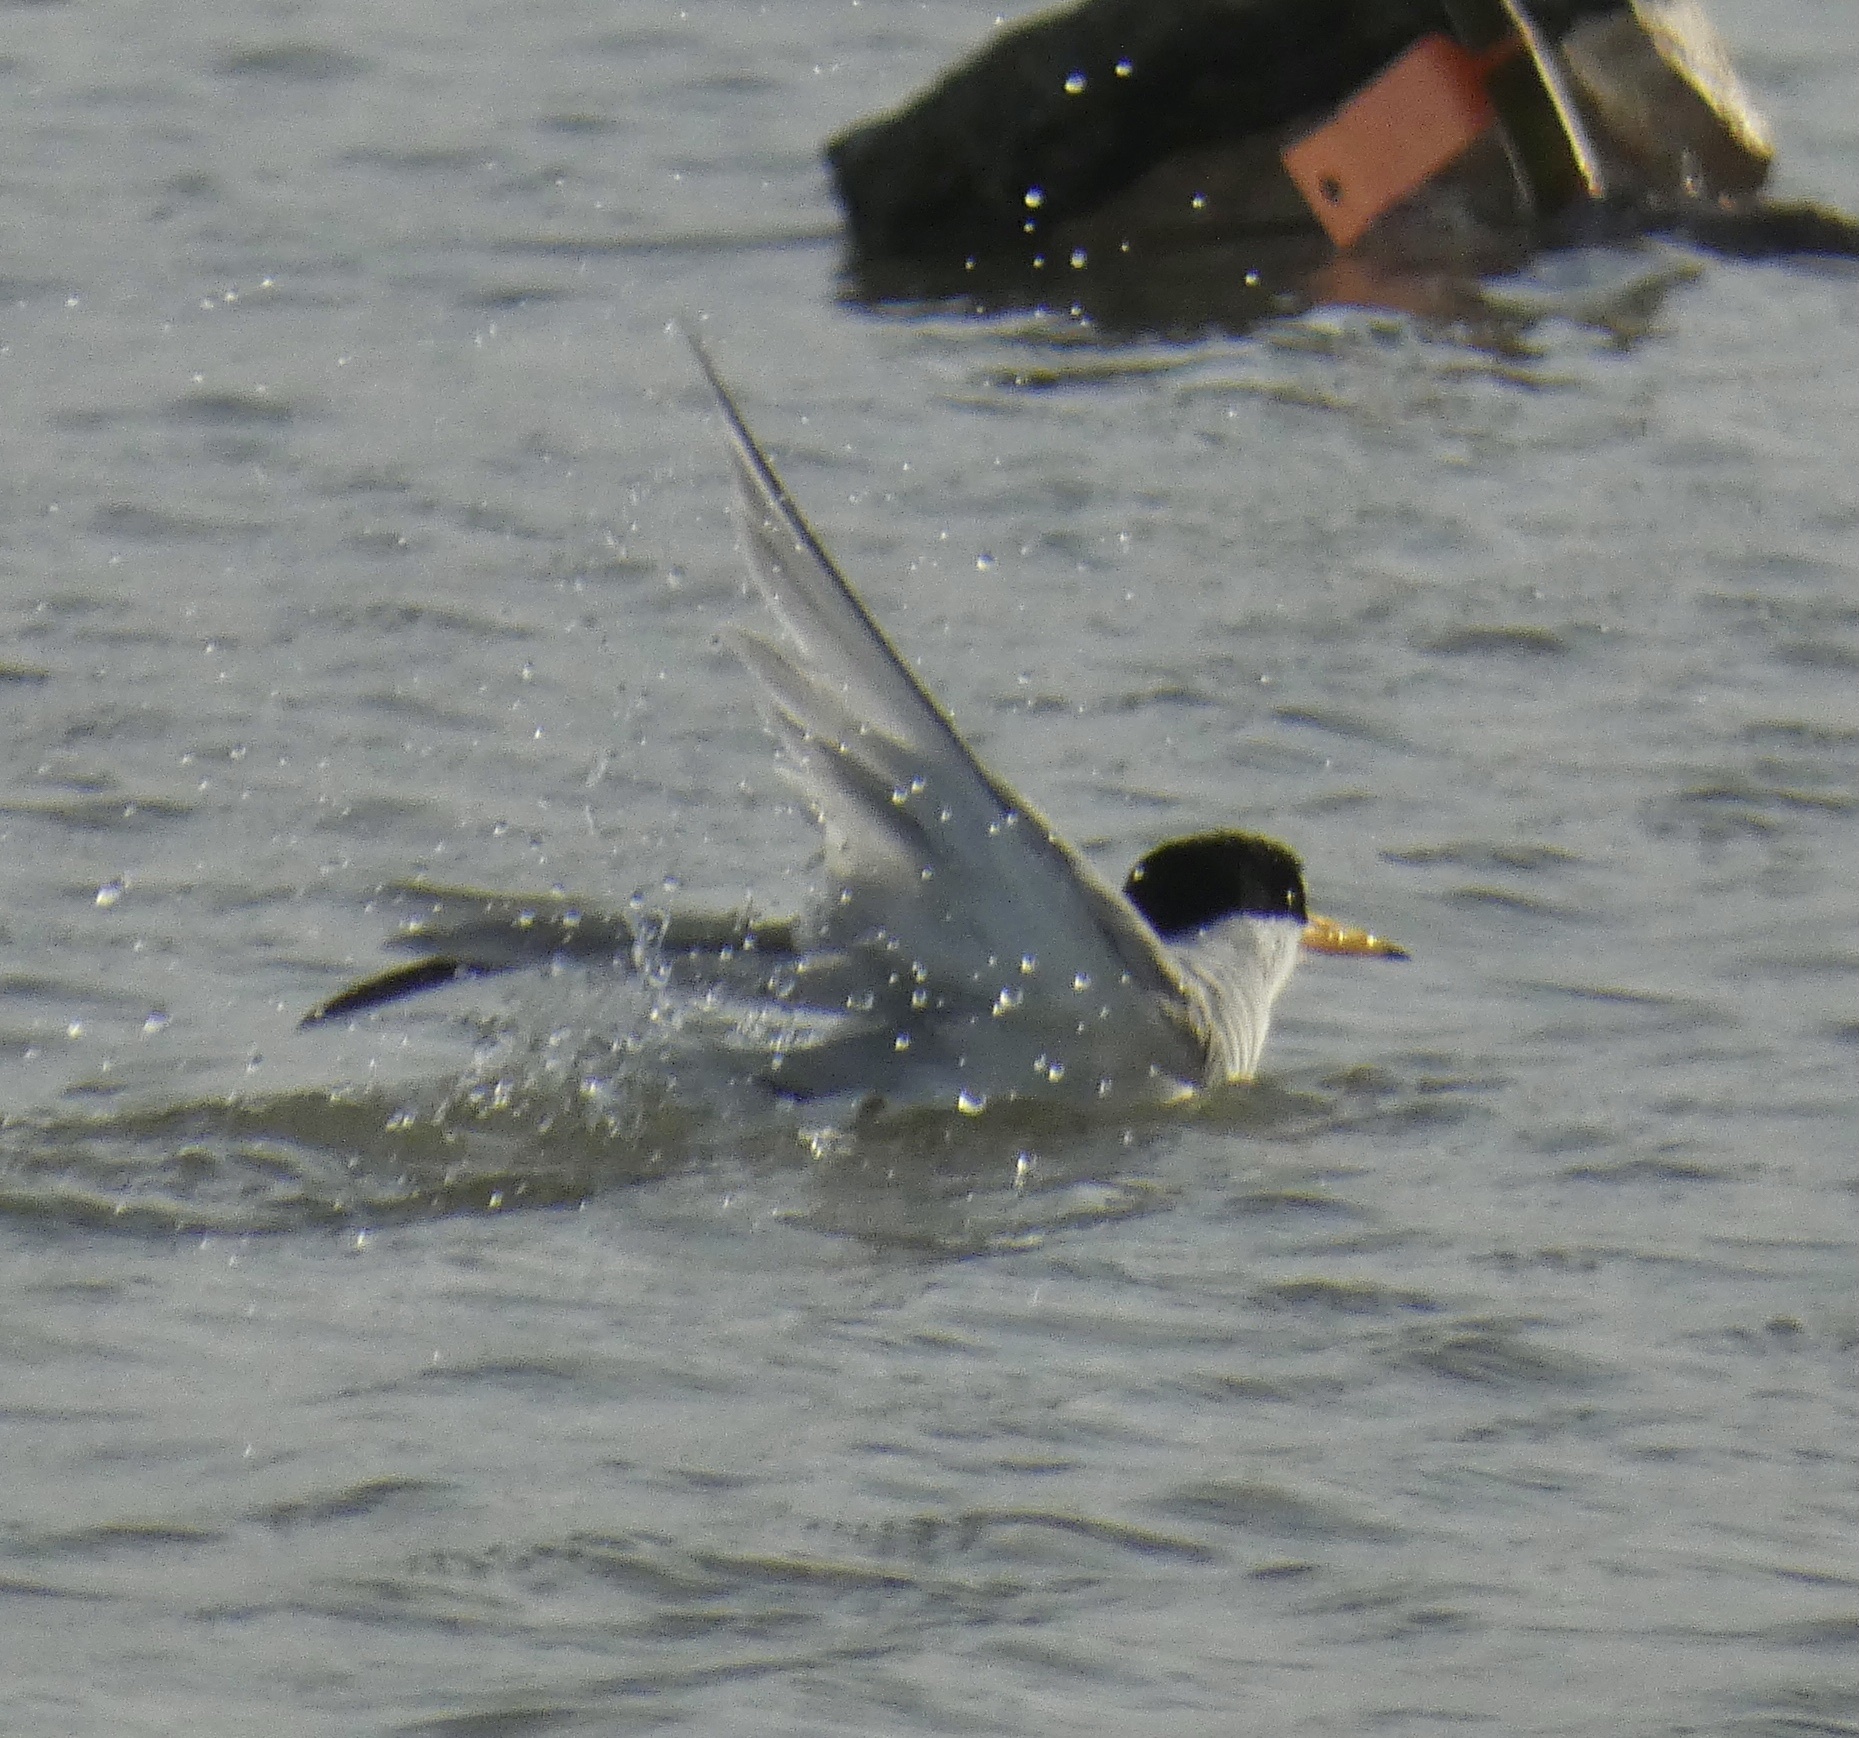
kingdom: Animalia
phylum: Chordata
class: Aves
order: Charadriiformes
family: Laridae
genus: Sternula
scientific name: Sternula antillarum
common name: Least tern
